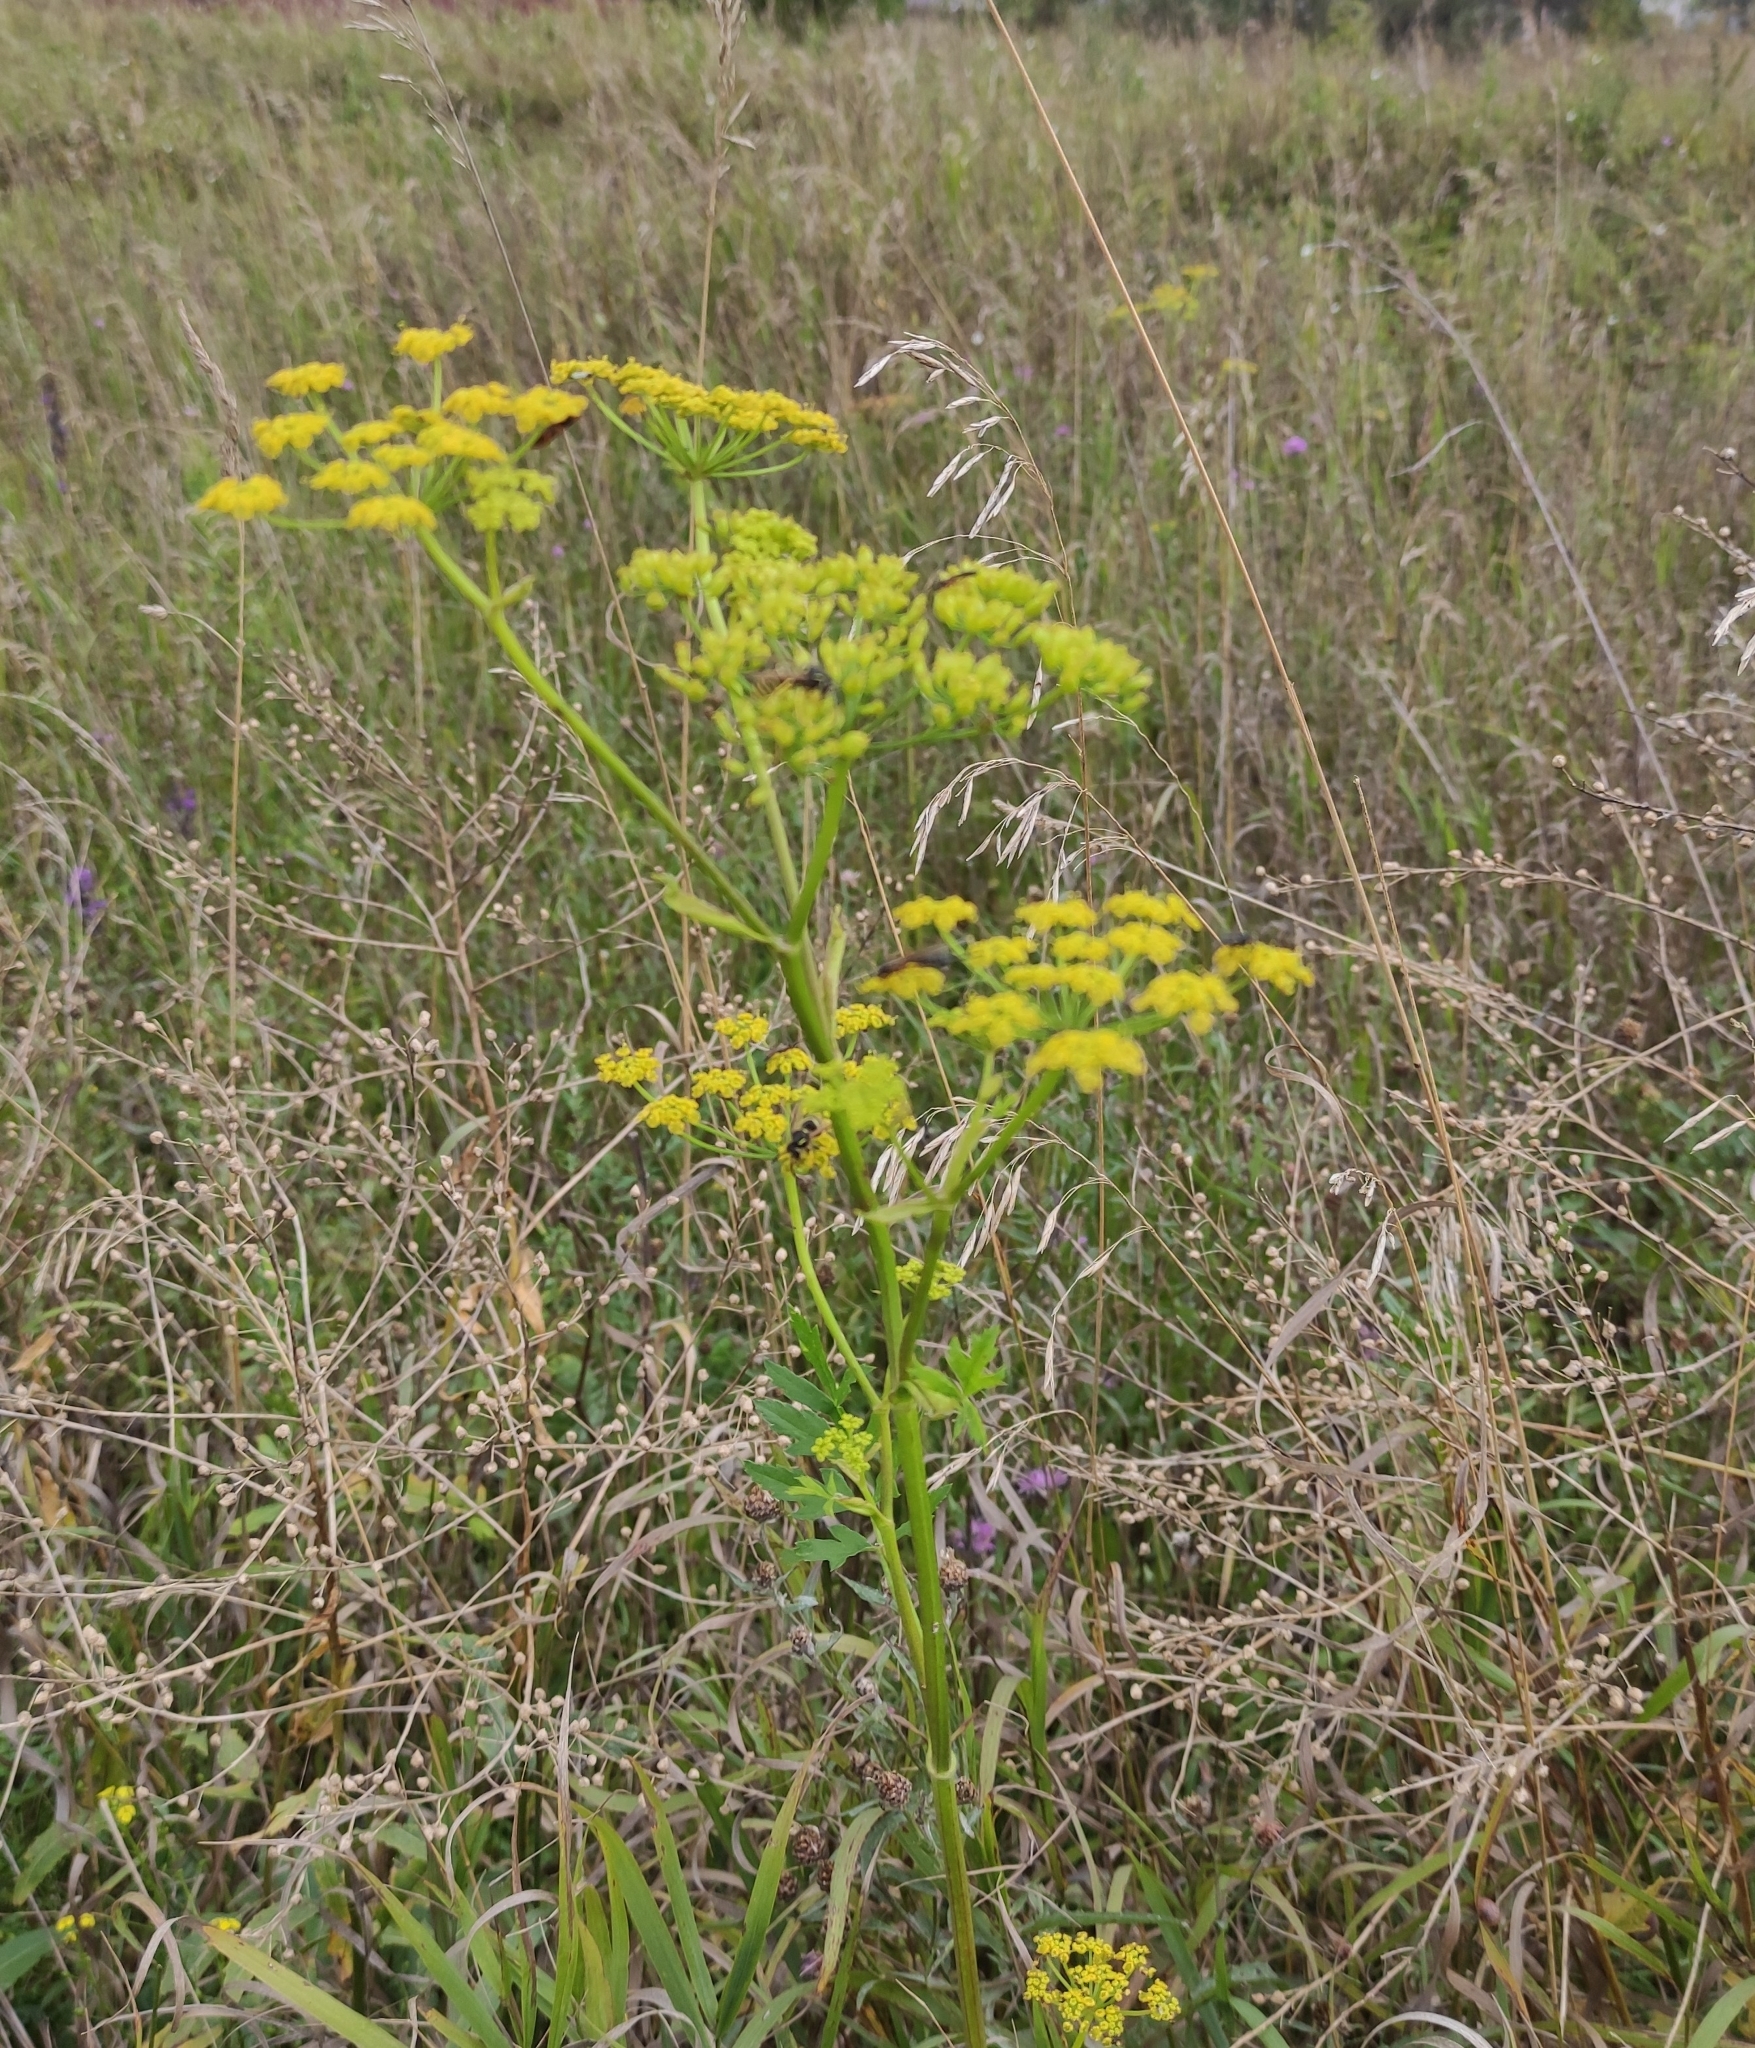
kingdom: Plantae
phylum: Tracheophyta
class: Magnoliopsida
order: Apiales
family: Apiaceae
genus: Pastinaca
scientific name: Pastinaca sativa
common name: Wild parsnip
